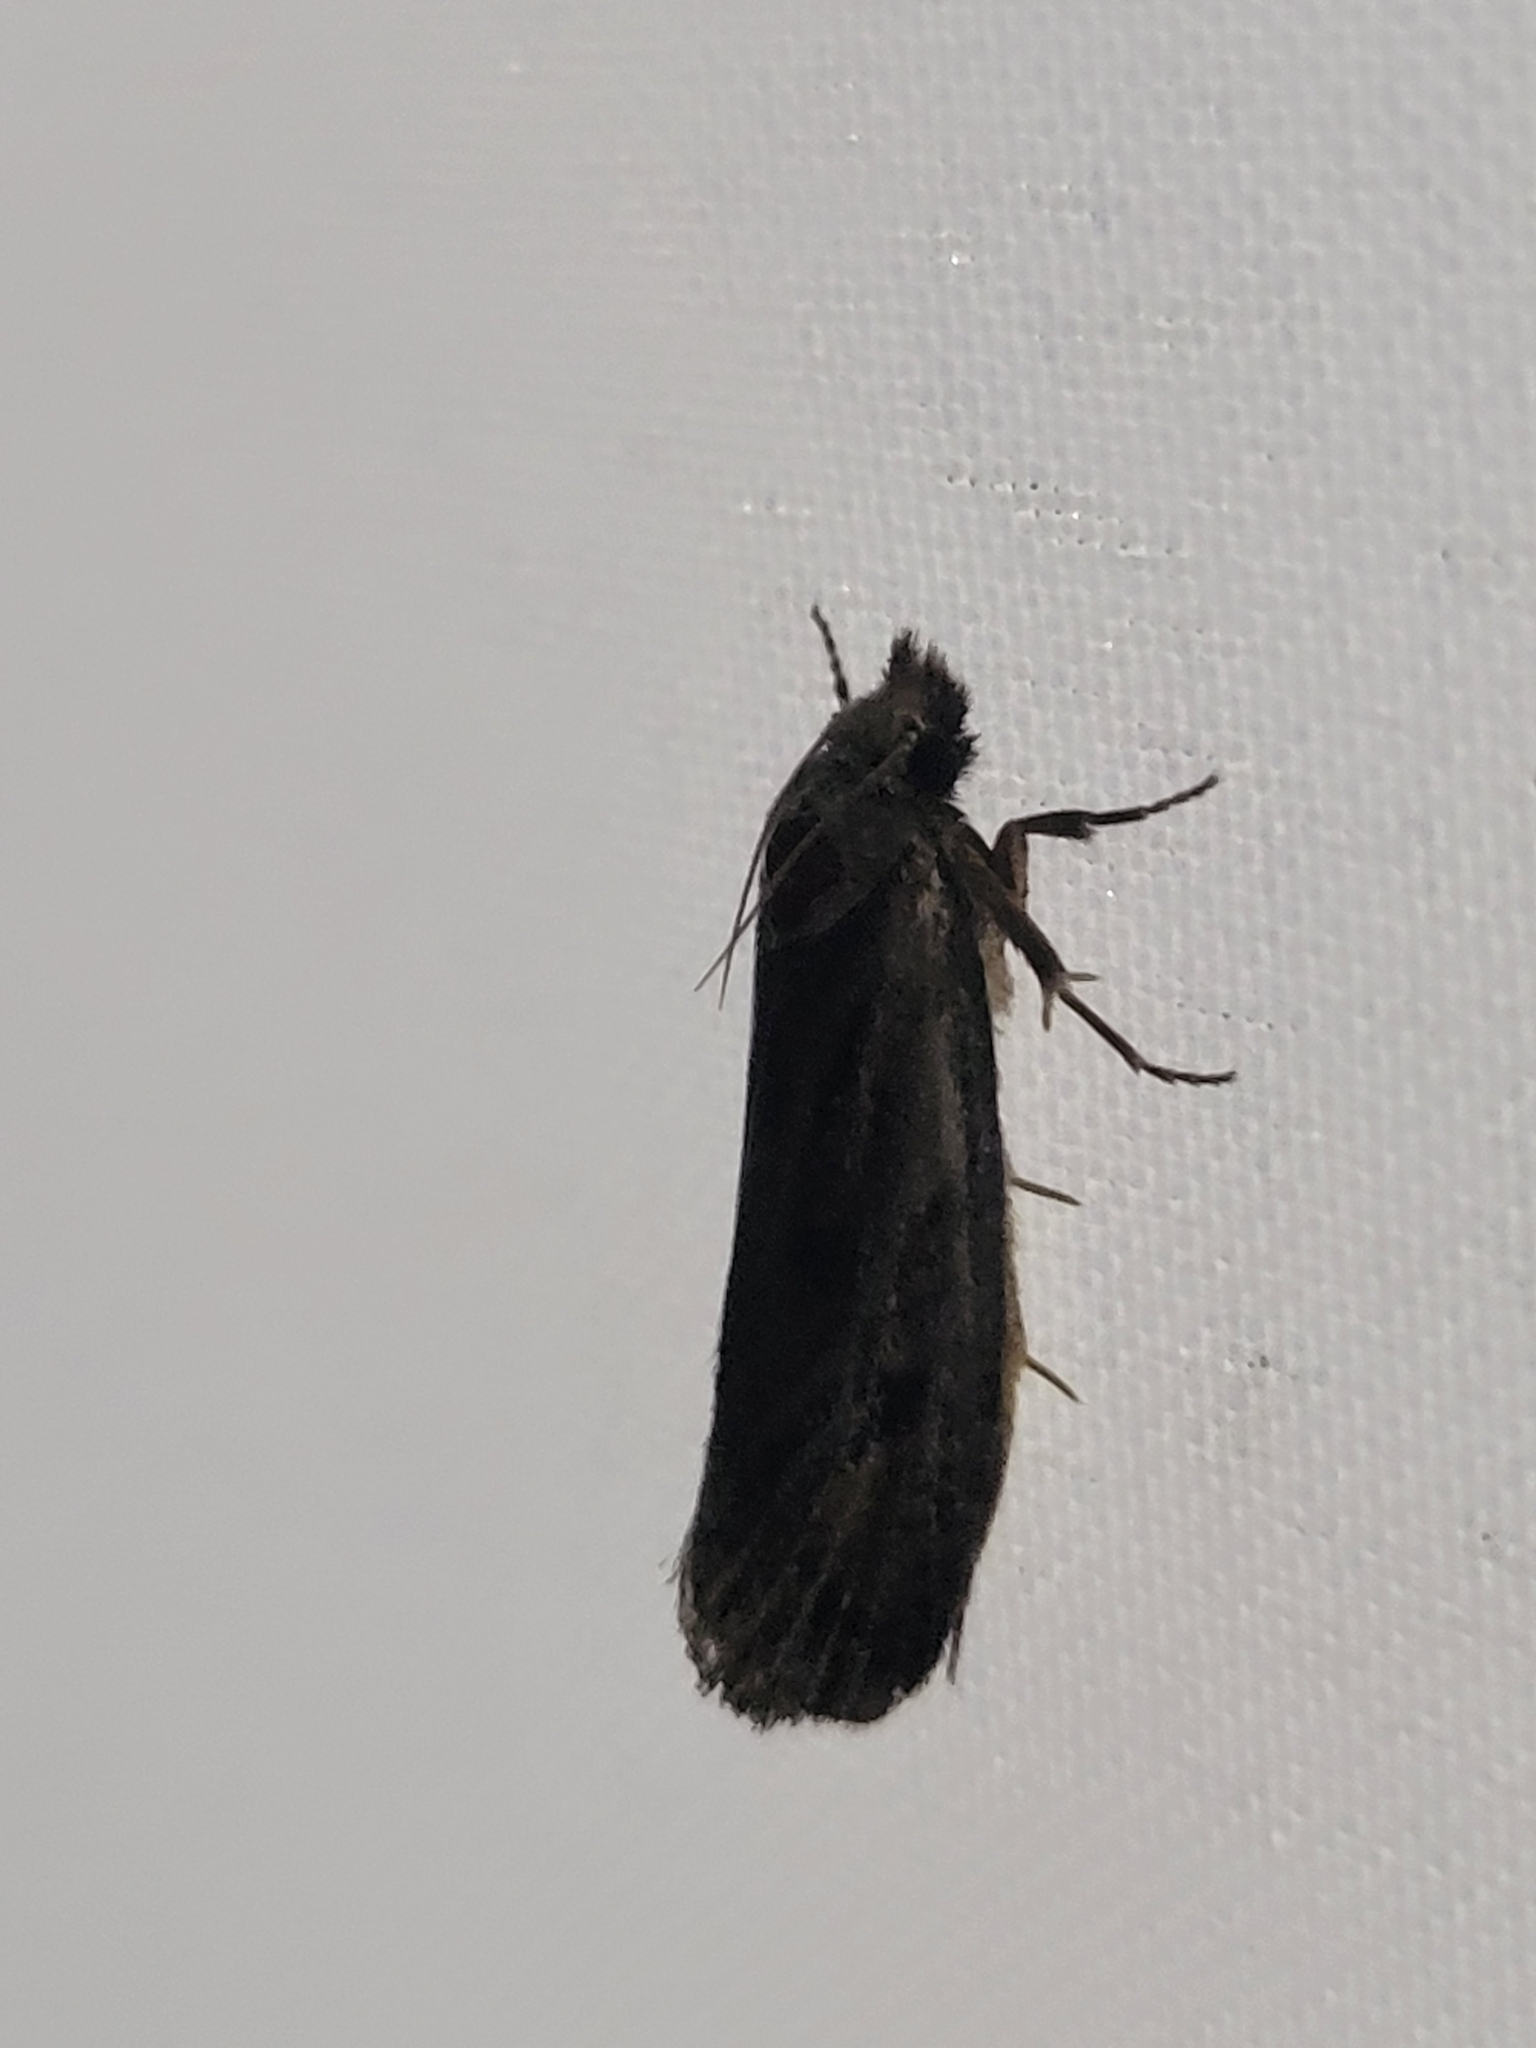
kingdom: Animalia
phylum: Arthropoda
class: Insecta
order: Lepidoptera
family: Tineidae
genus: Acrolophus
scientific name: Acrolophus popeanella
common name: Clemens' grass tubeworm moth
